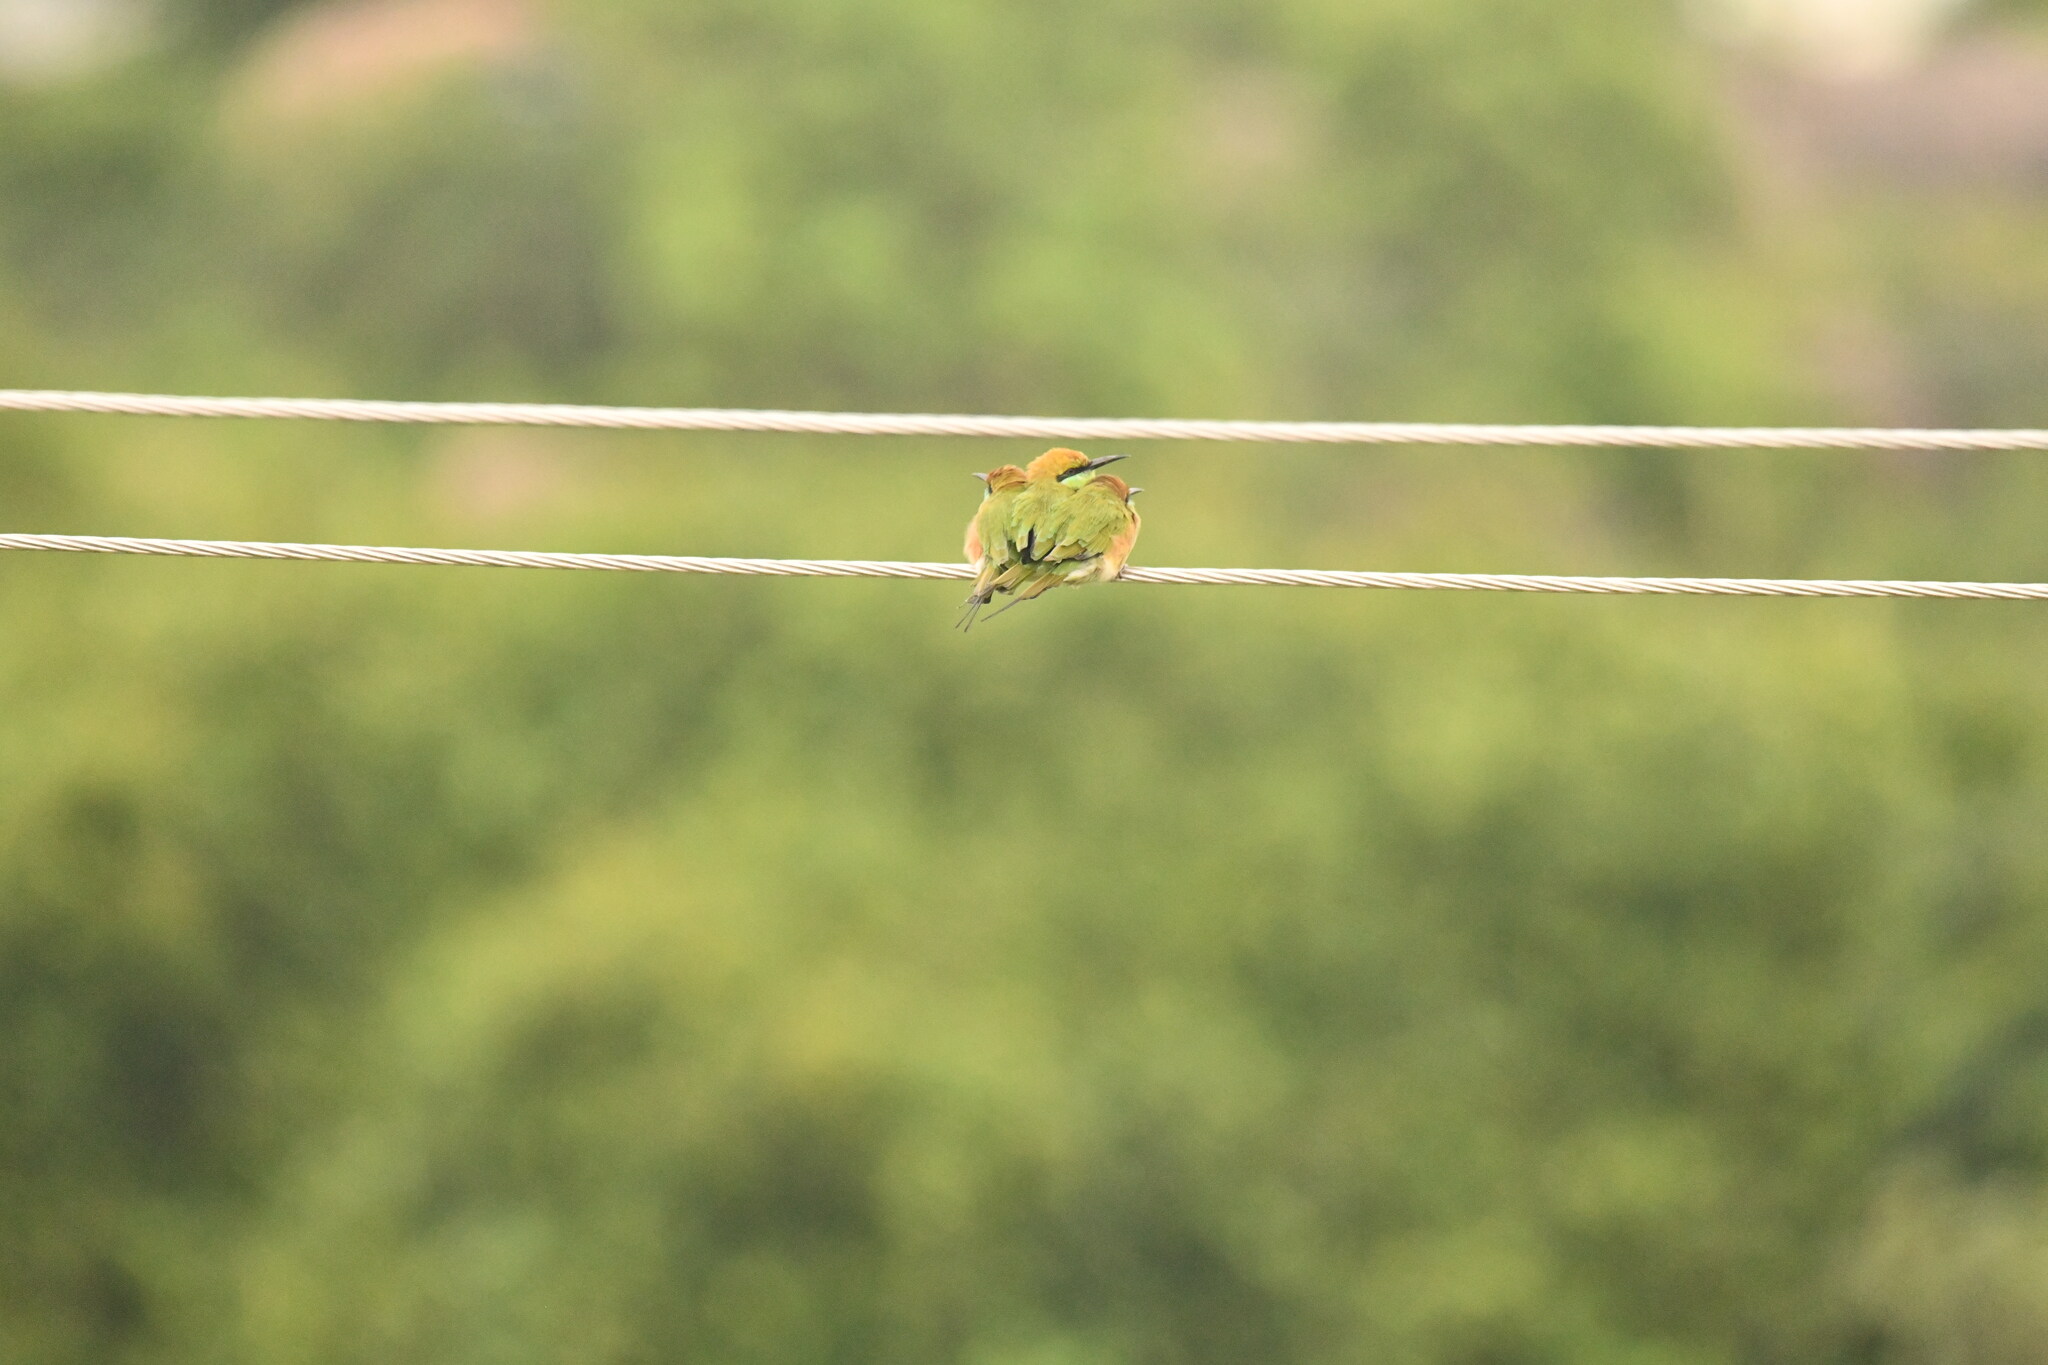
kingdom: Animalia
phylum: Chordata
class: Aves
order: Coraciiformes
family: Meropidae
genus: Merops
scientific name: Merops orientalis
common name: Green bee-eater
